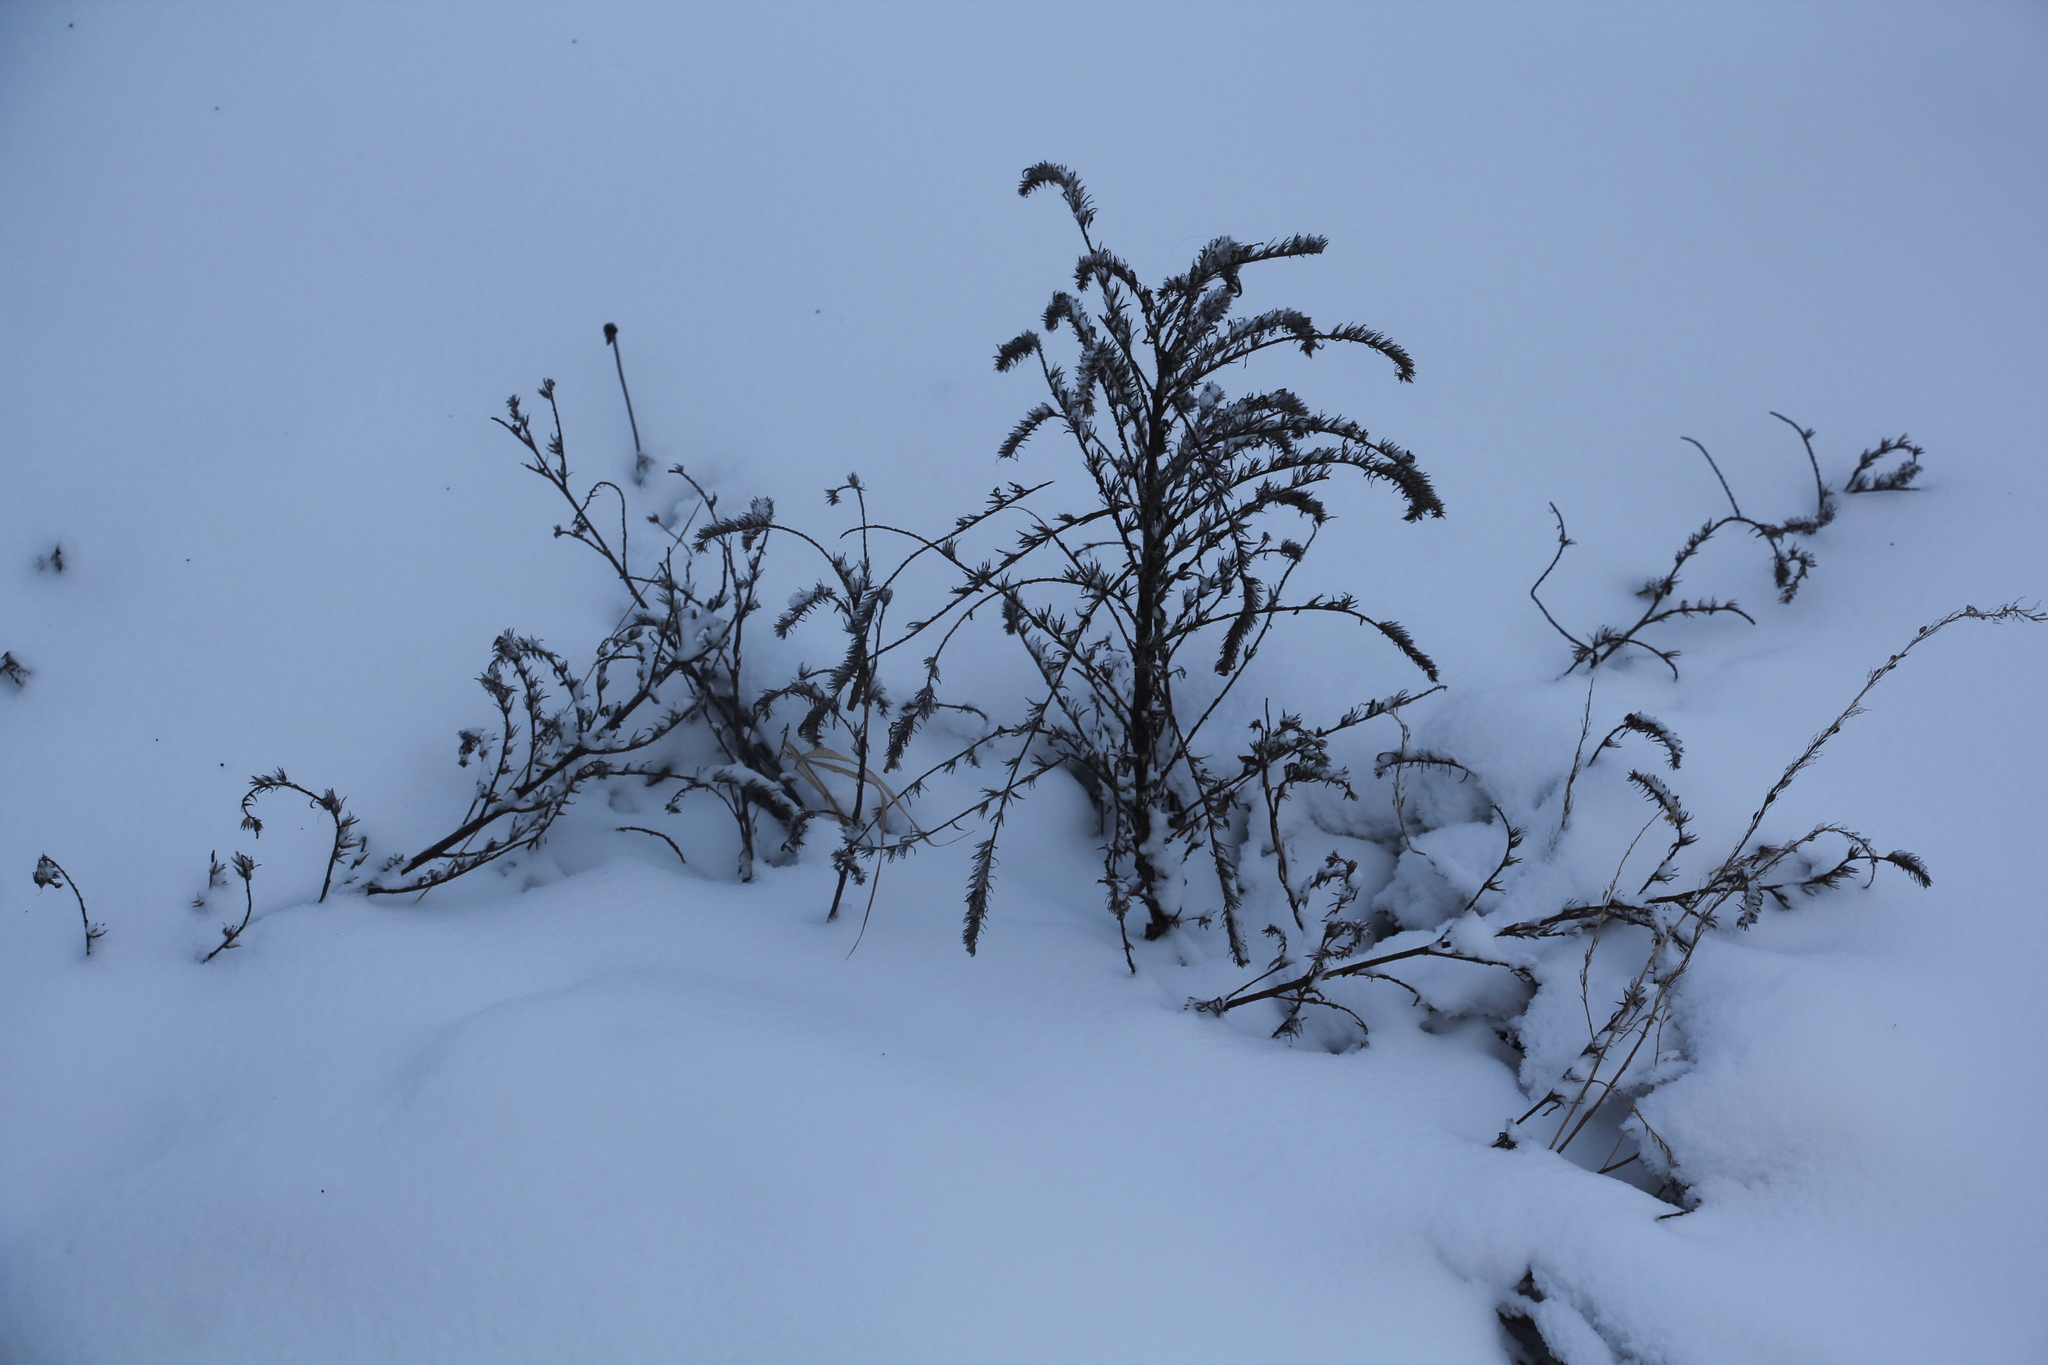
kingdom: Plantae
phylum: Tracheophyta
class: Magnoliopsida
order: Boraginales
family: Boraginaceae
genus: Echium
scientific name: Echium vulgare
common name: Common viper's bugloss
